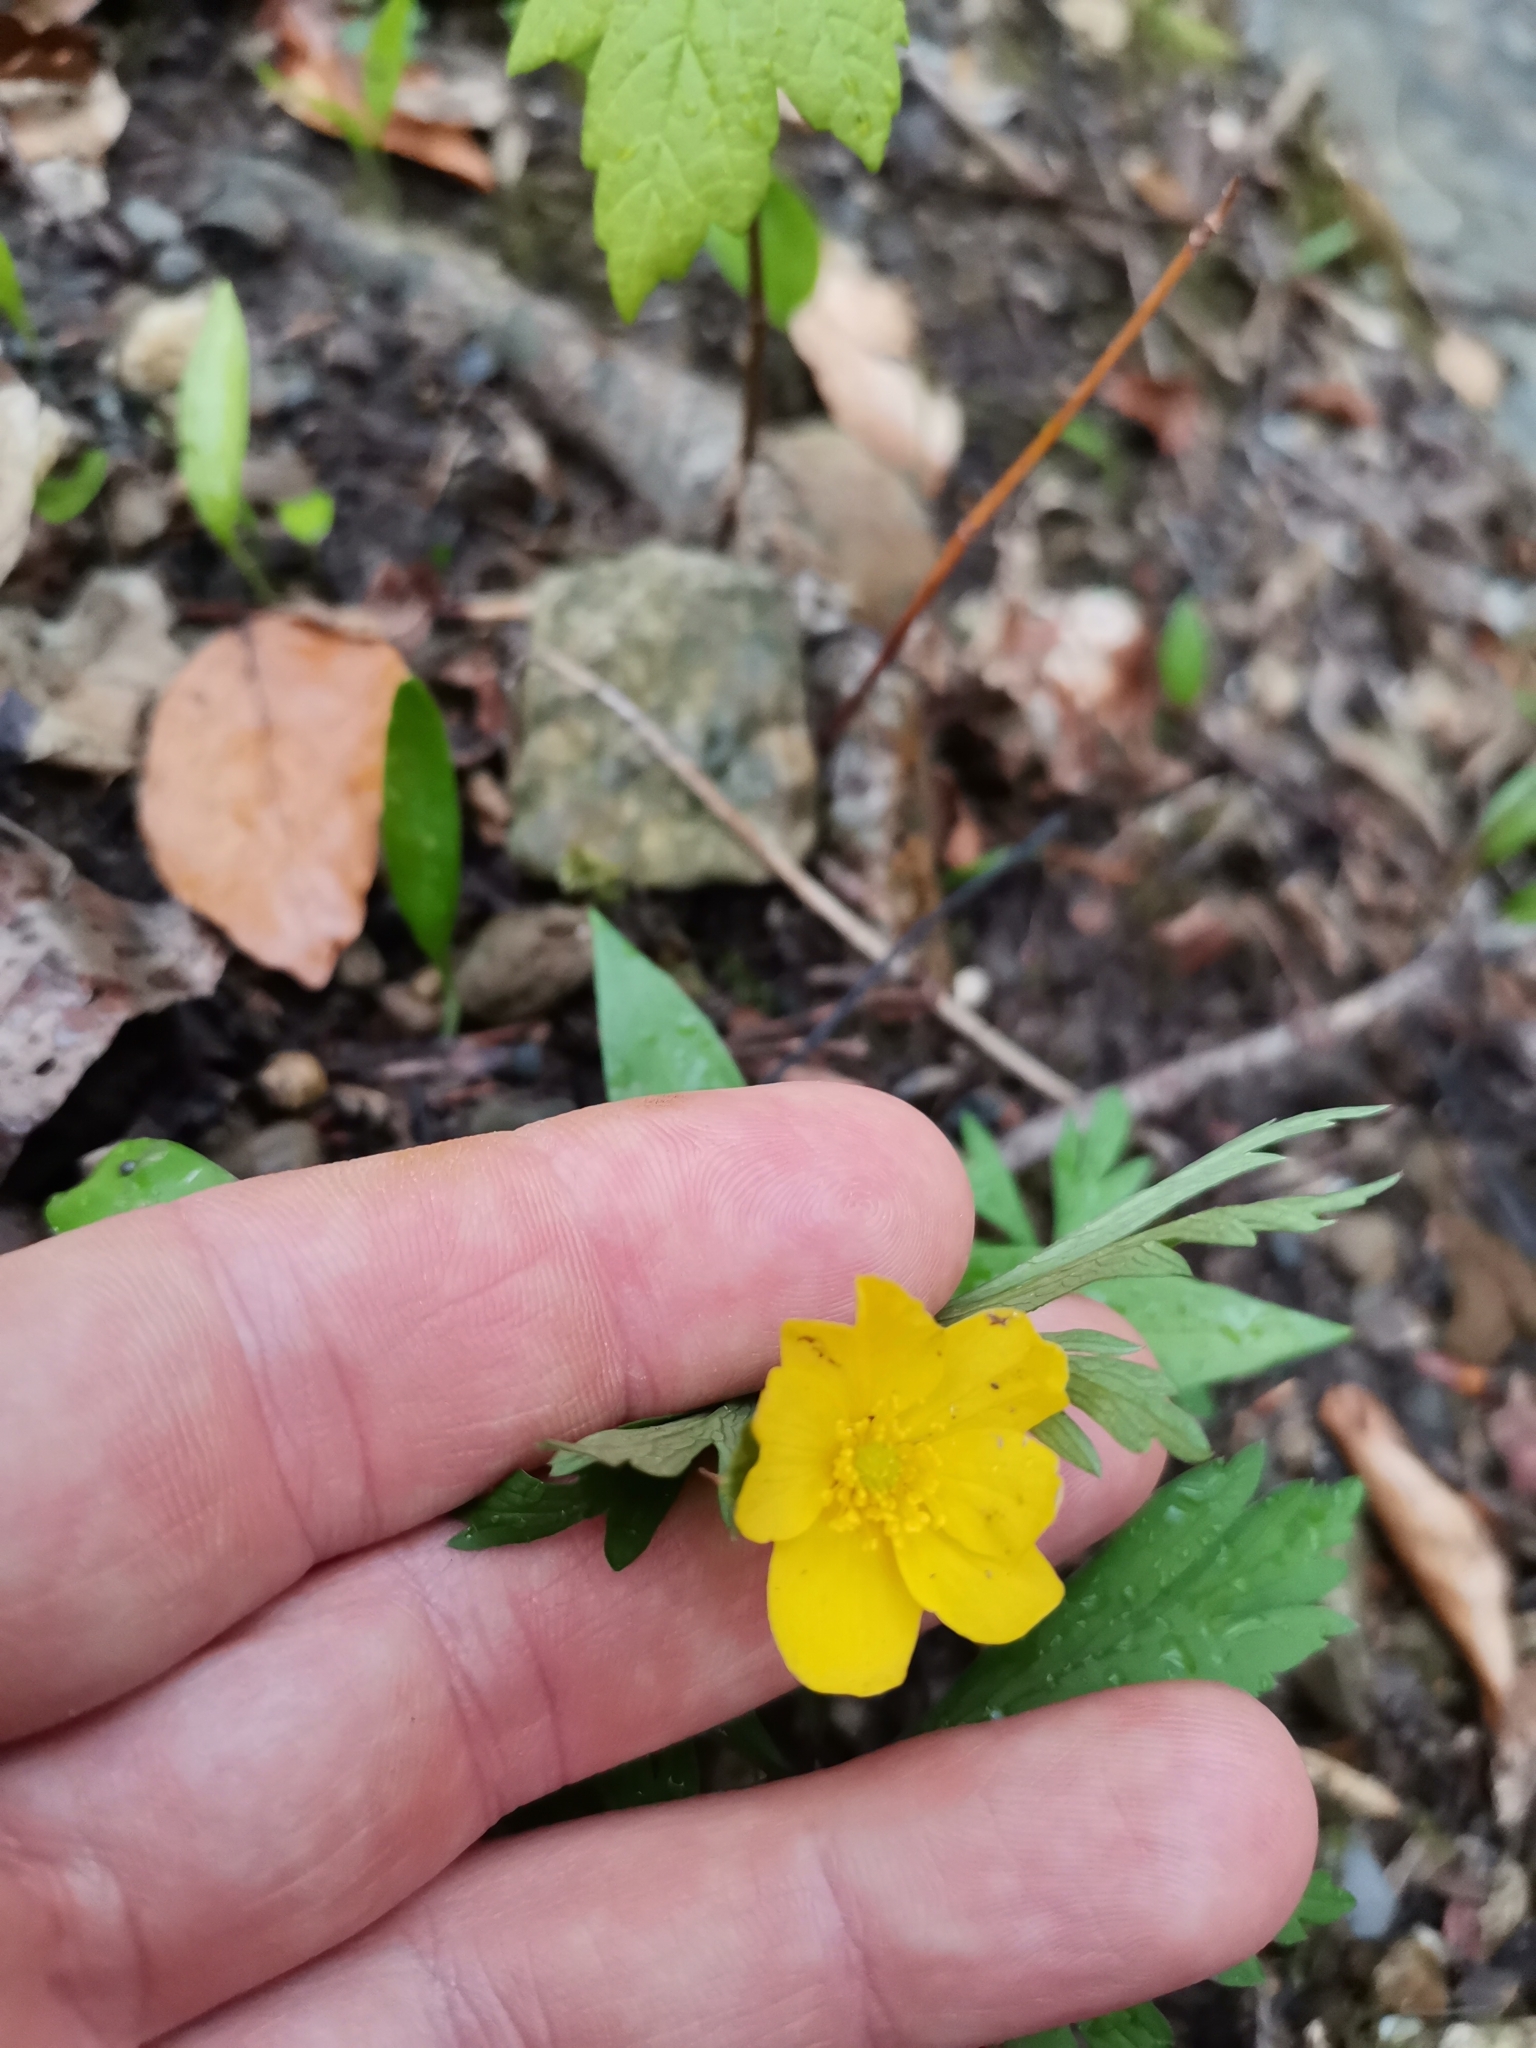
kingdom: Plantae
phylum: Tracheophyta
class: Magnoliopsida
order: Ranunculales
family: Ranunculaceae
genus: Anemone
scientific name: Anemone ranunculoides
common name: Yellow anemone
